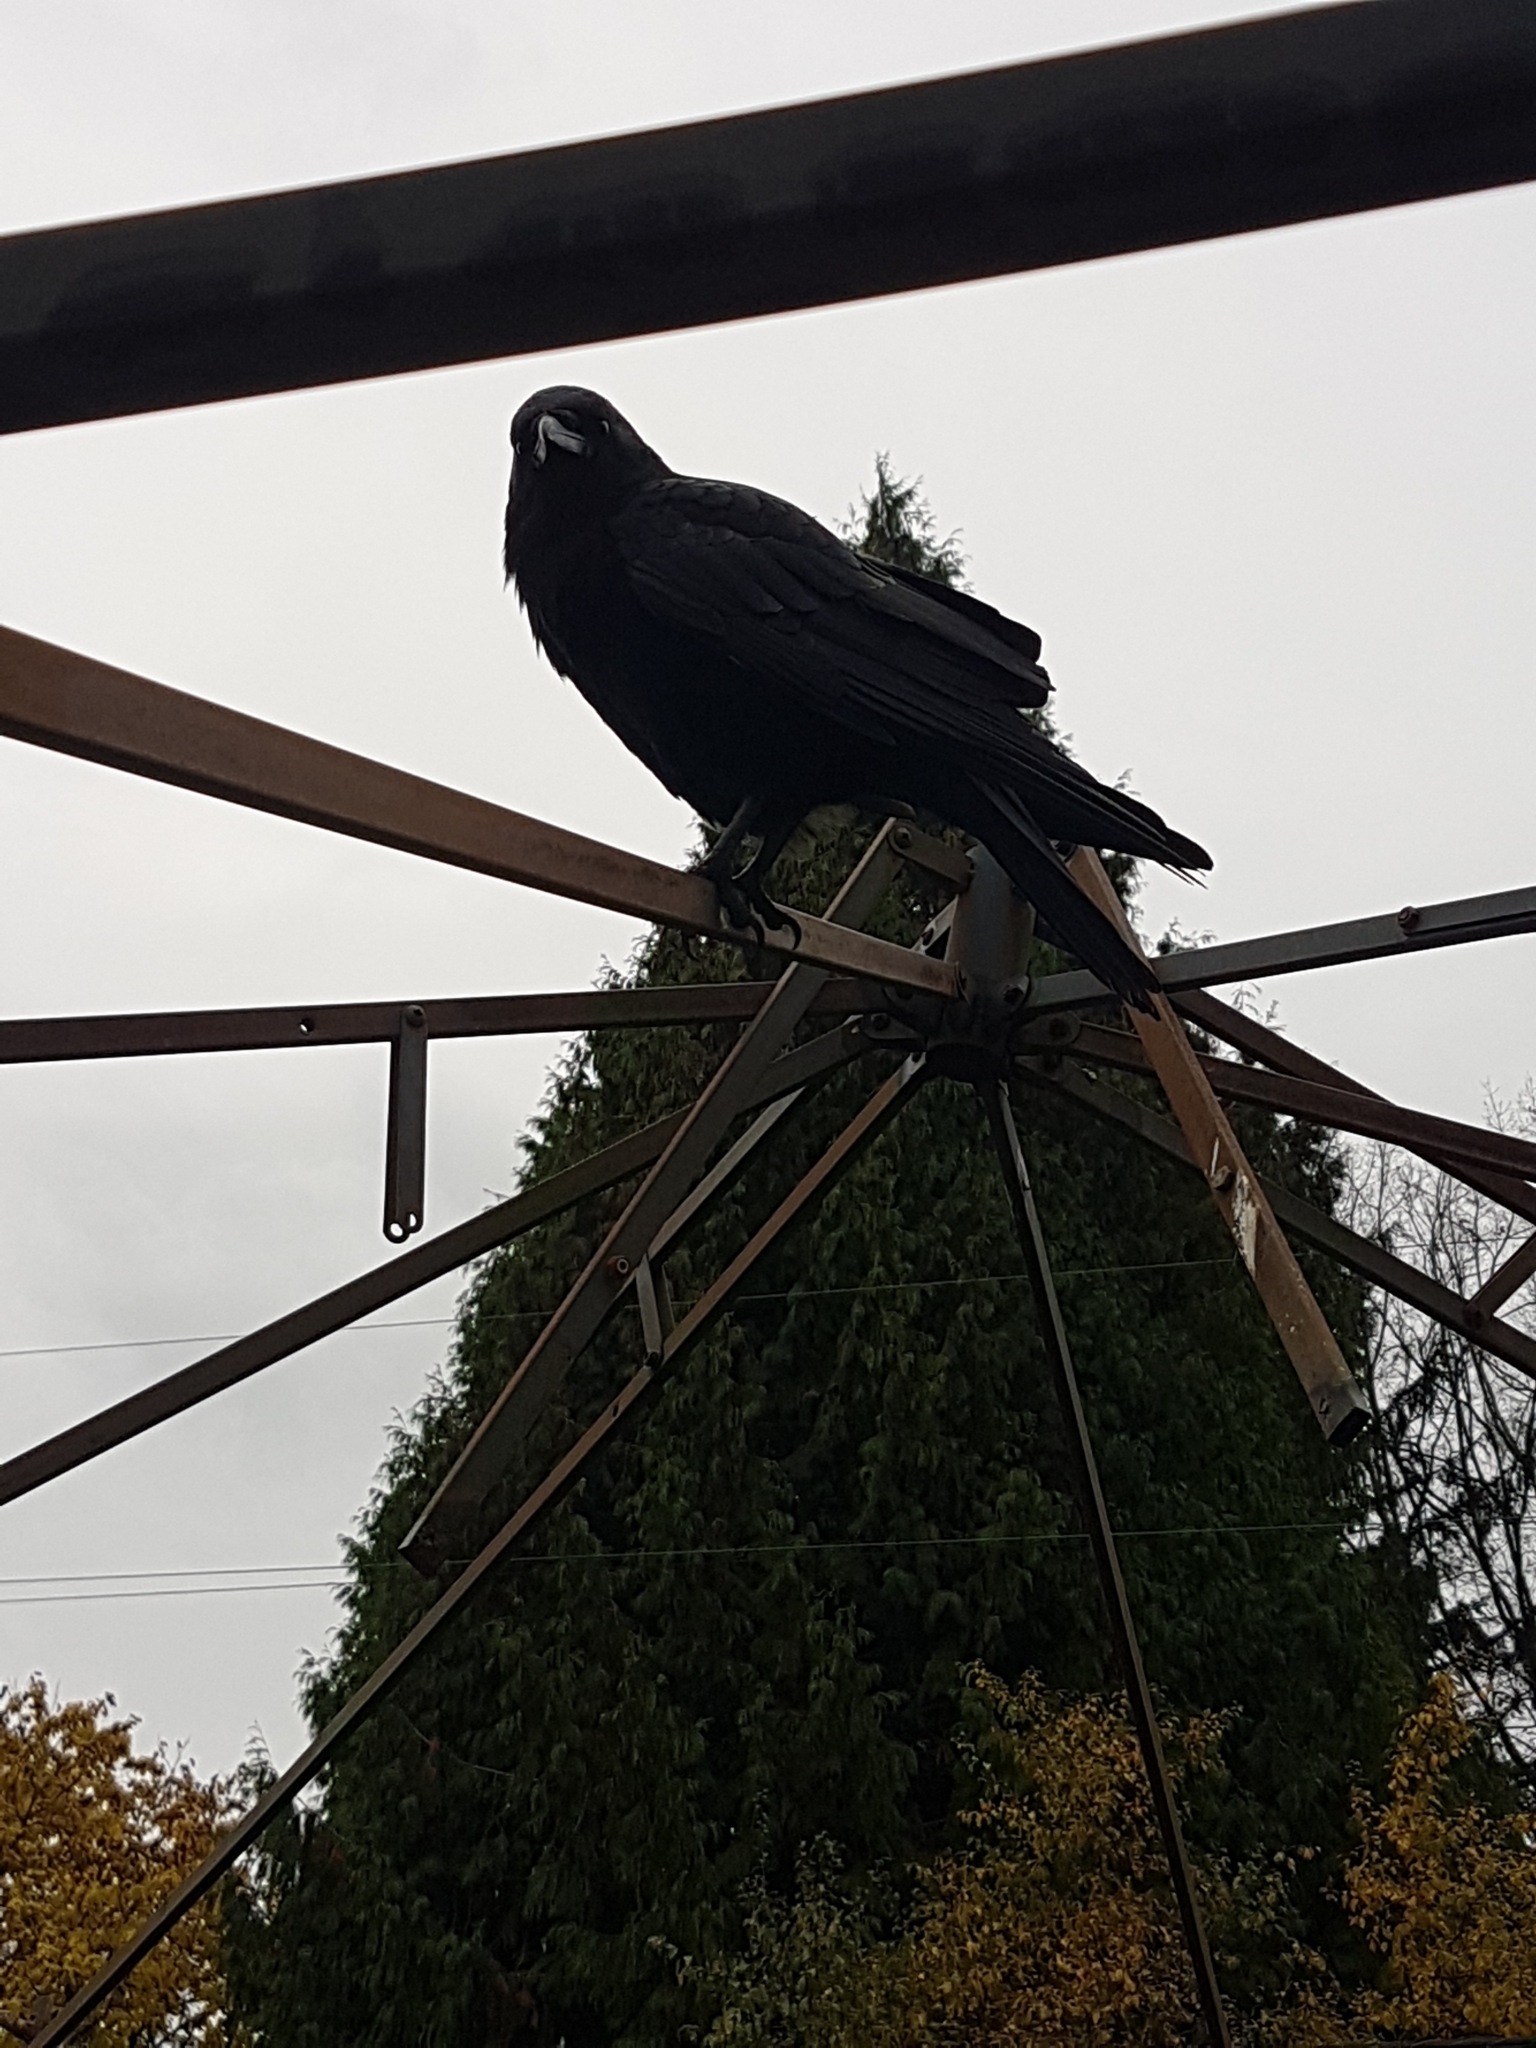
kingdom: Animalia
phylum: Chordata
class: Aves
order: Passeriformes
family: Corvidae
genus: Corvus
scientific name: Corvus brachyrhynchos
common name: American crow
